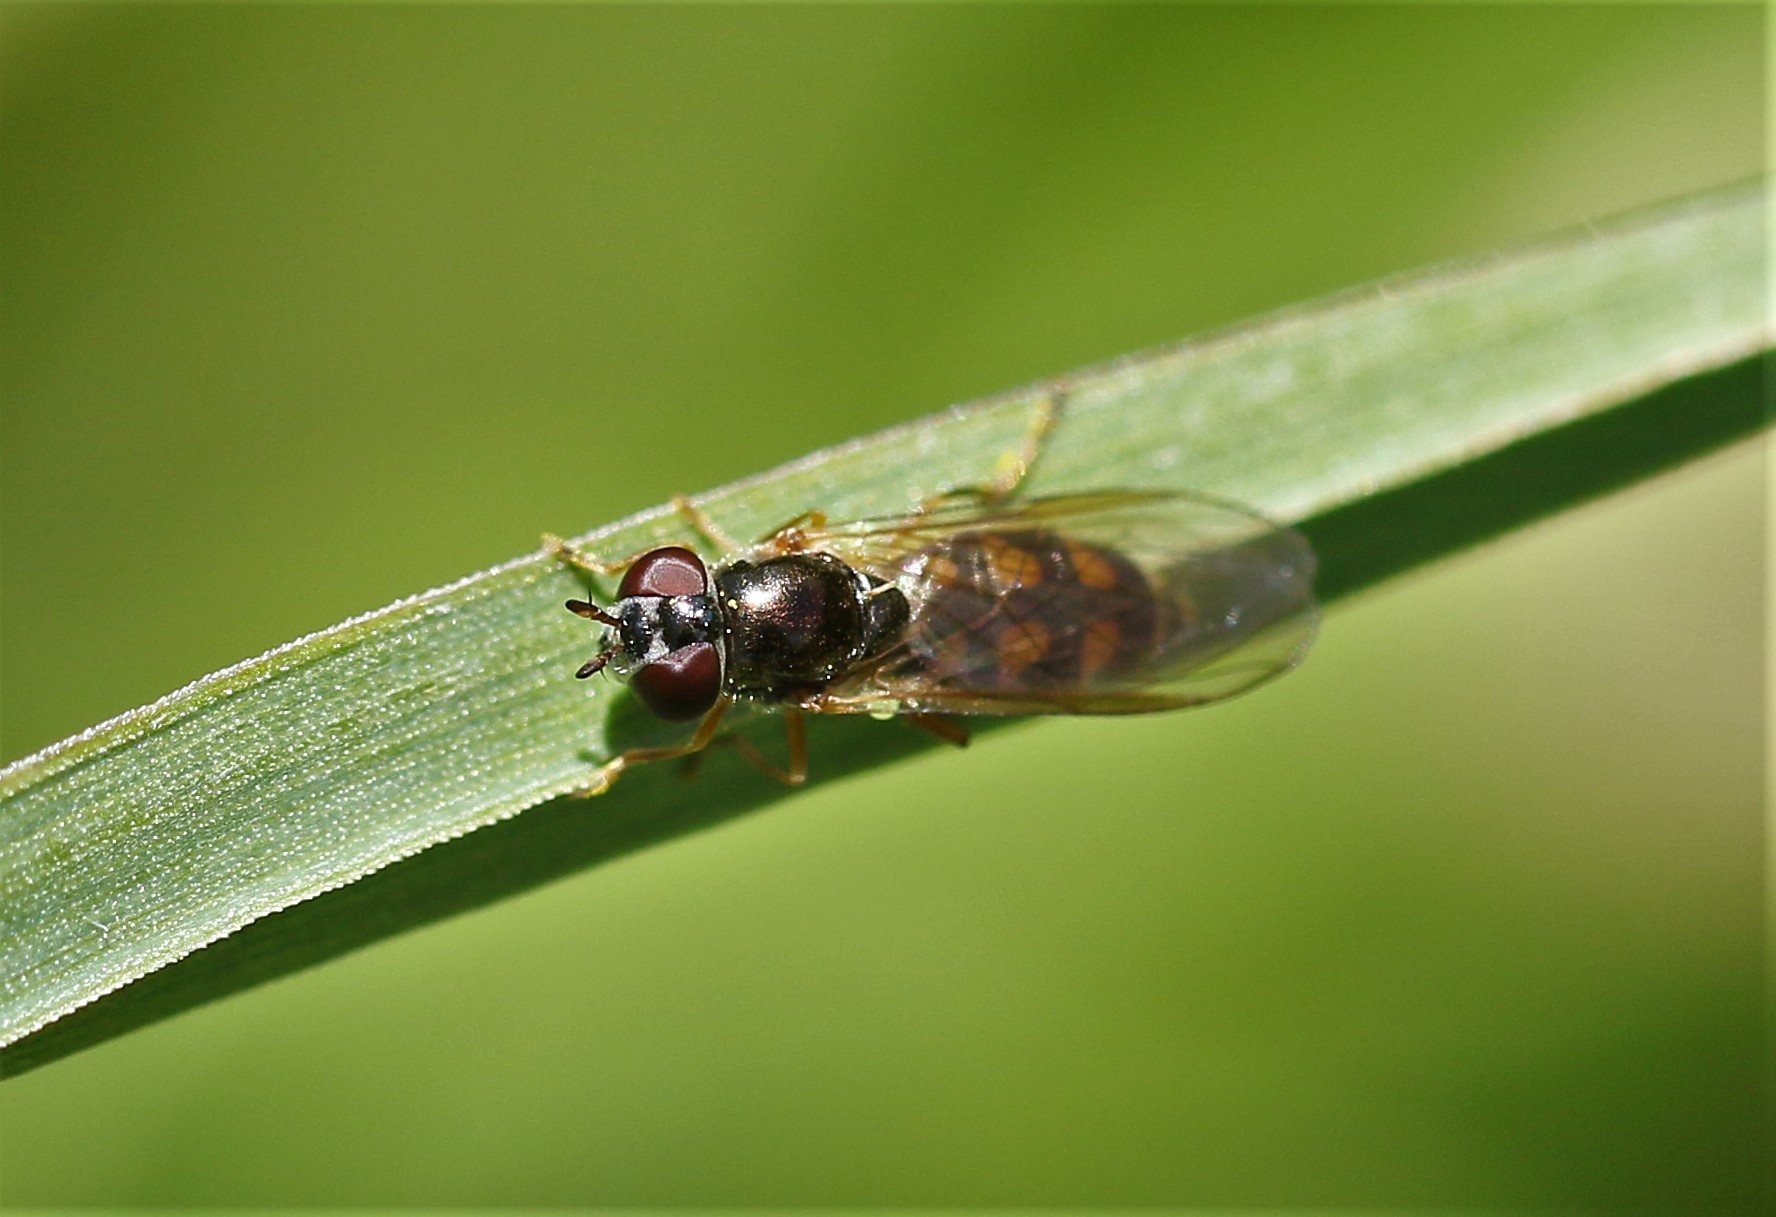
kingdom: Animalia
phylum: Arthropoda
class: Insecta
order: Diptera
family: Syrphidae
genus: Melanostoma
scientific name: Melanostoma mellina
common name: Hover fly
